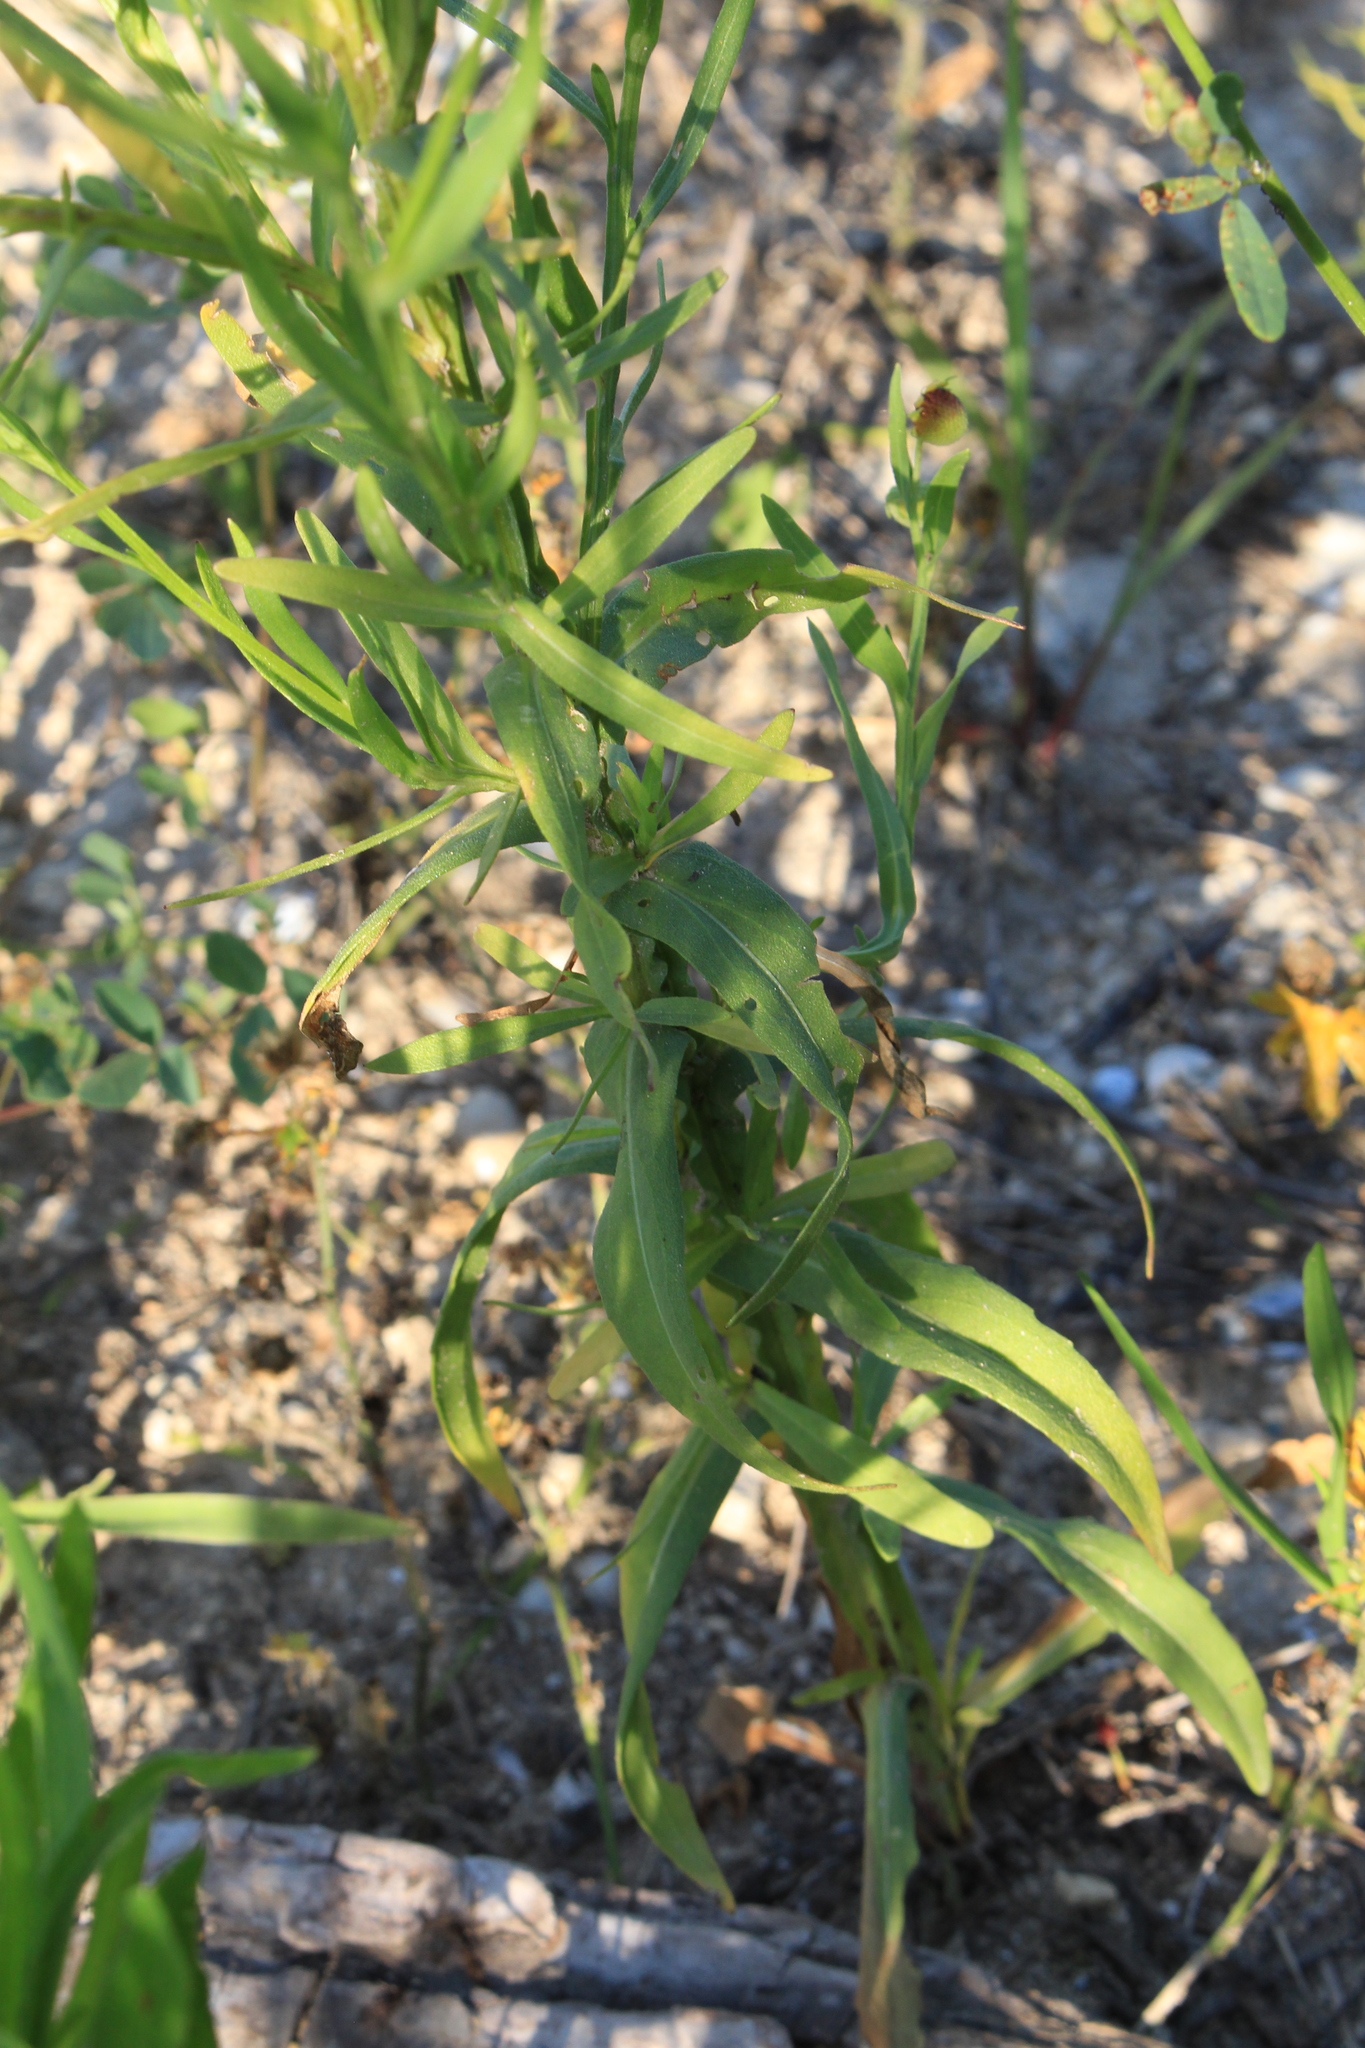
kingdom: Plantae
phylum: Tracheophyta
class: Magnoliopsida
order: Asterales
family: Asteraceae
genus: Helenium
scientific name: Helenium elegans
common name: Pretty sneezeweed
